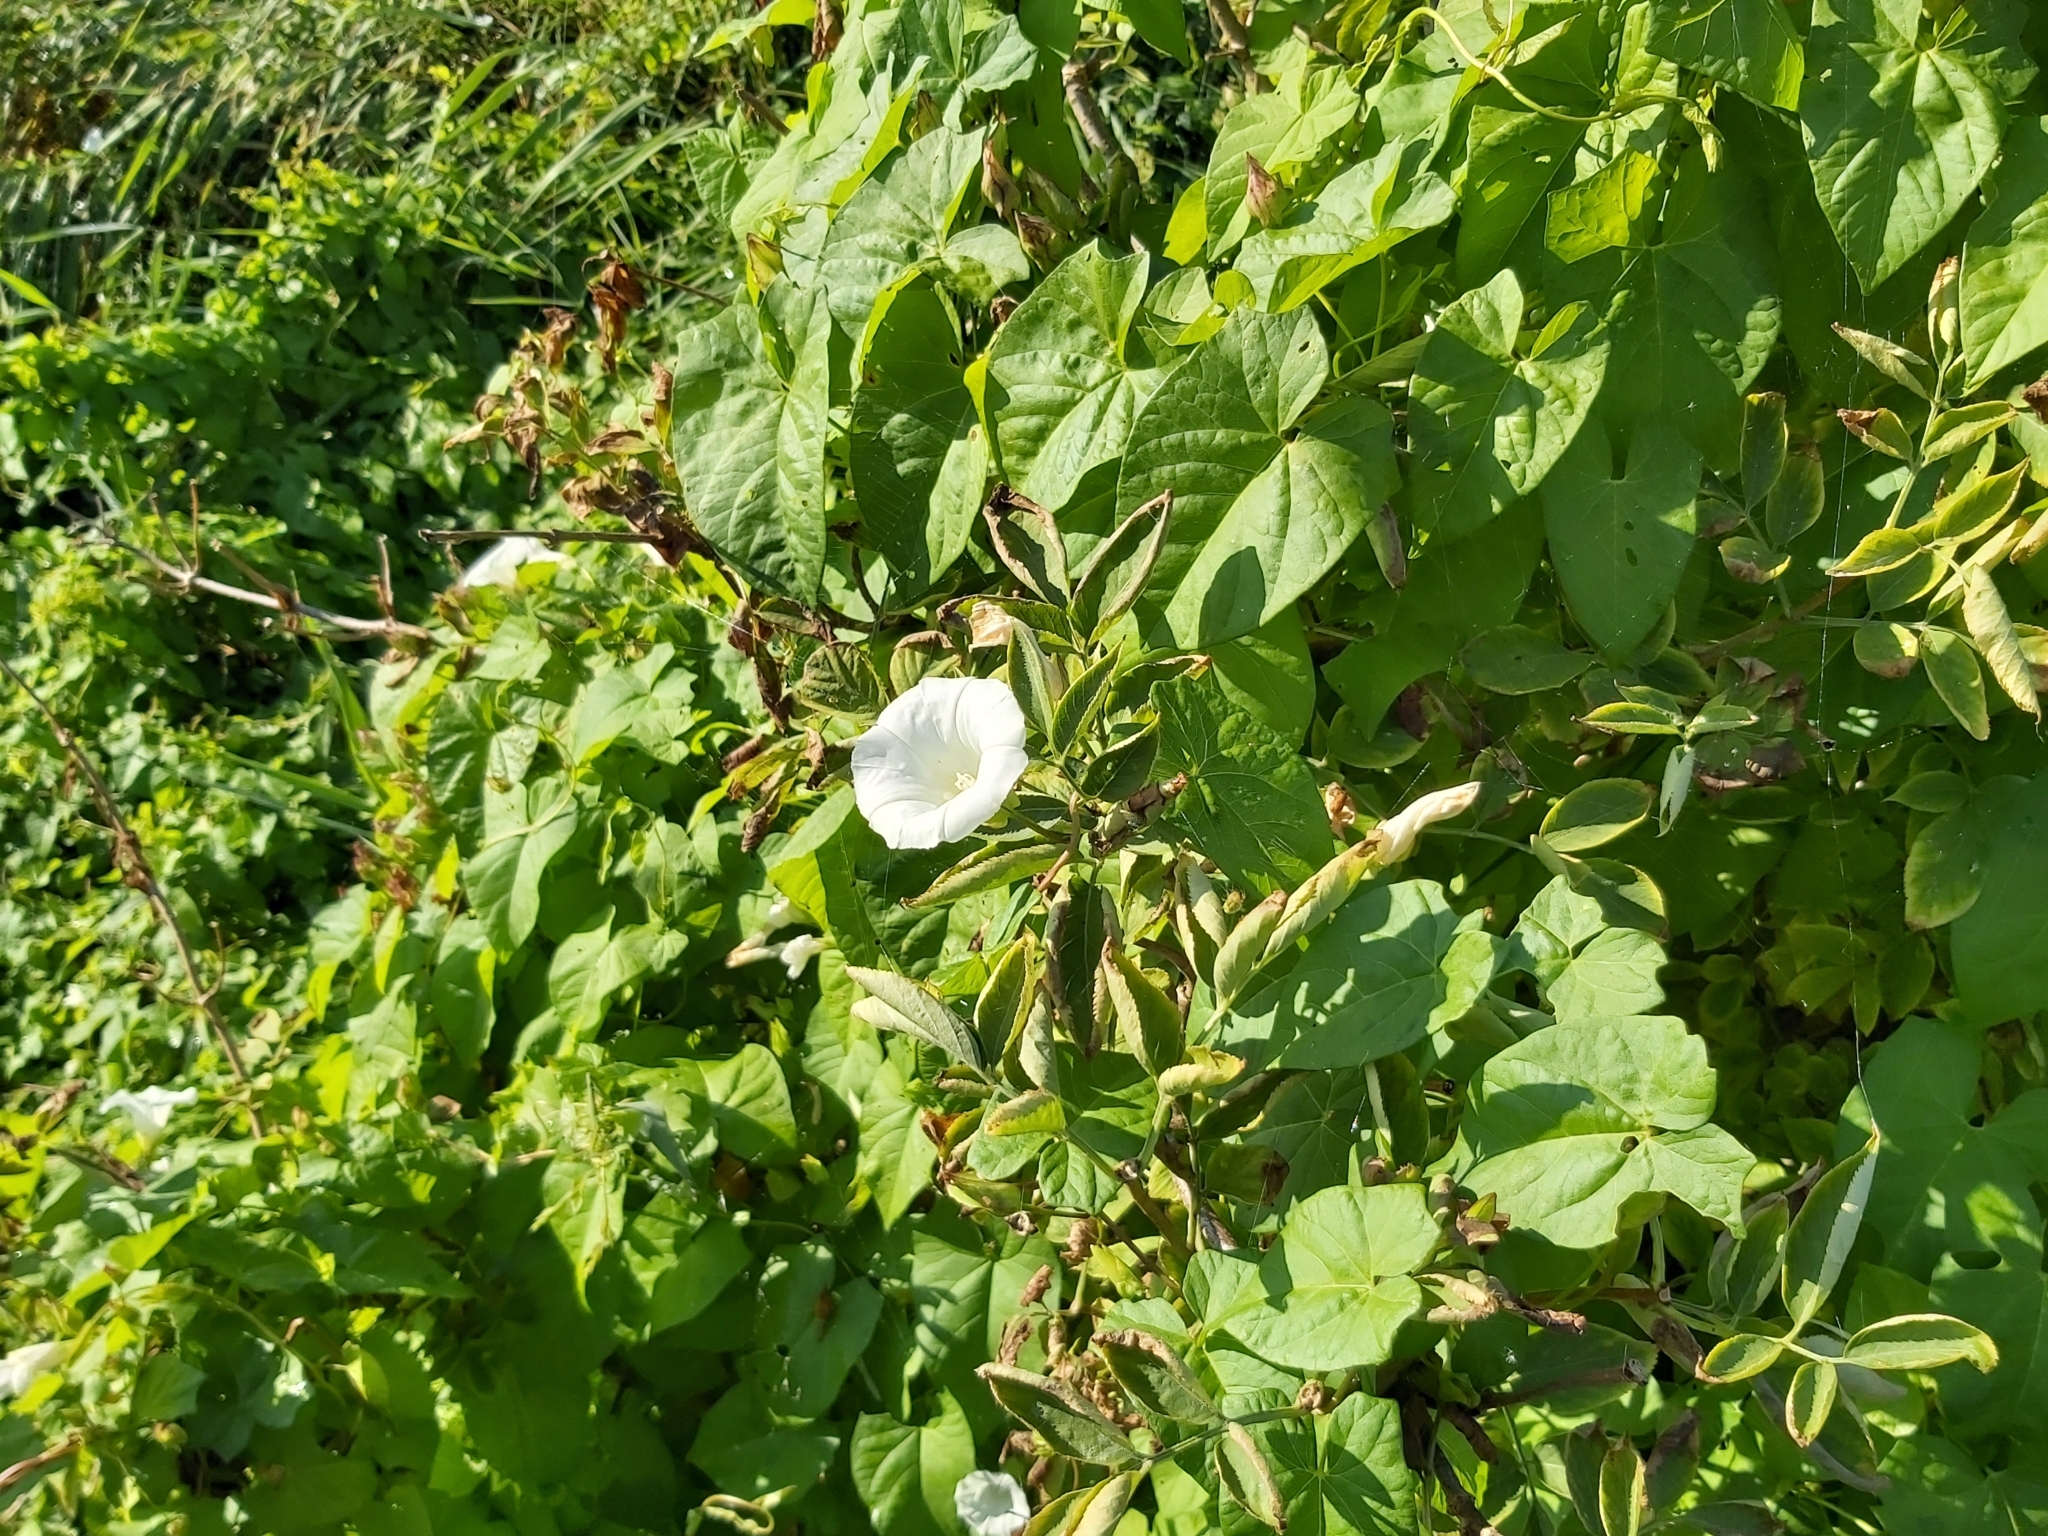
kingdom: Plantae
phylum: Tracheophyta
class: Magnoliopsida
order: Solanales
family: Convolvulaceae
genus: Calystegia
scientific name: Calystegia sepium
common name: Hedge bindweed
